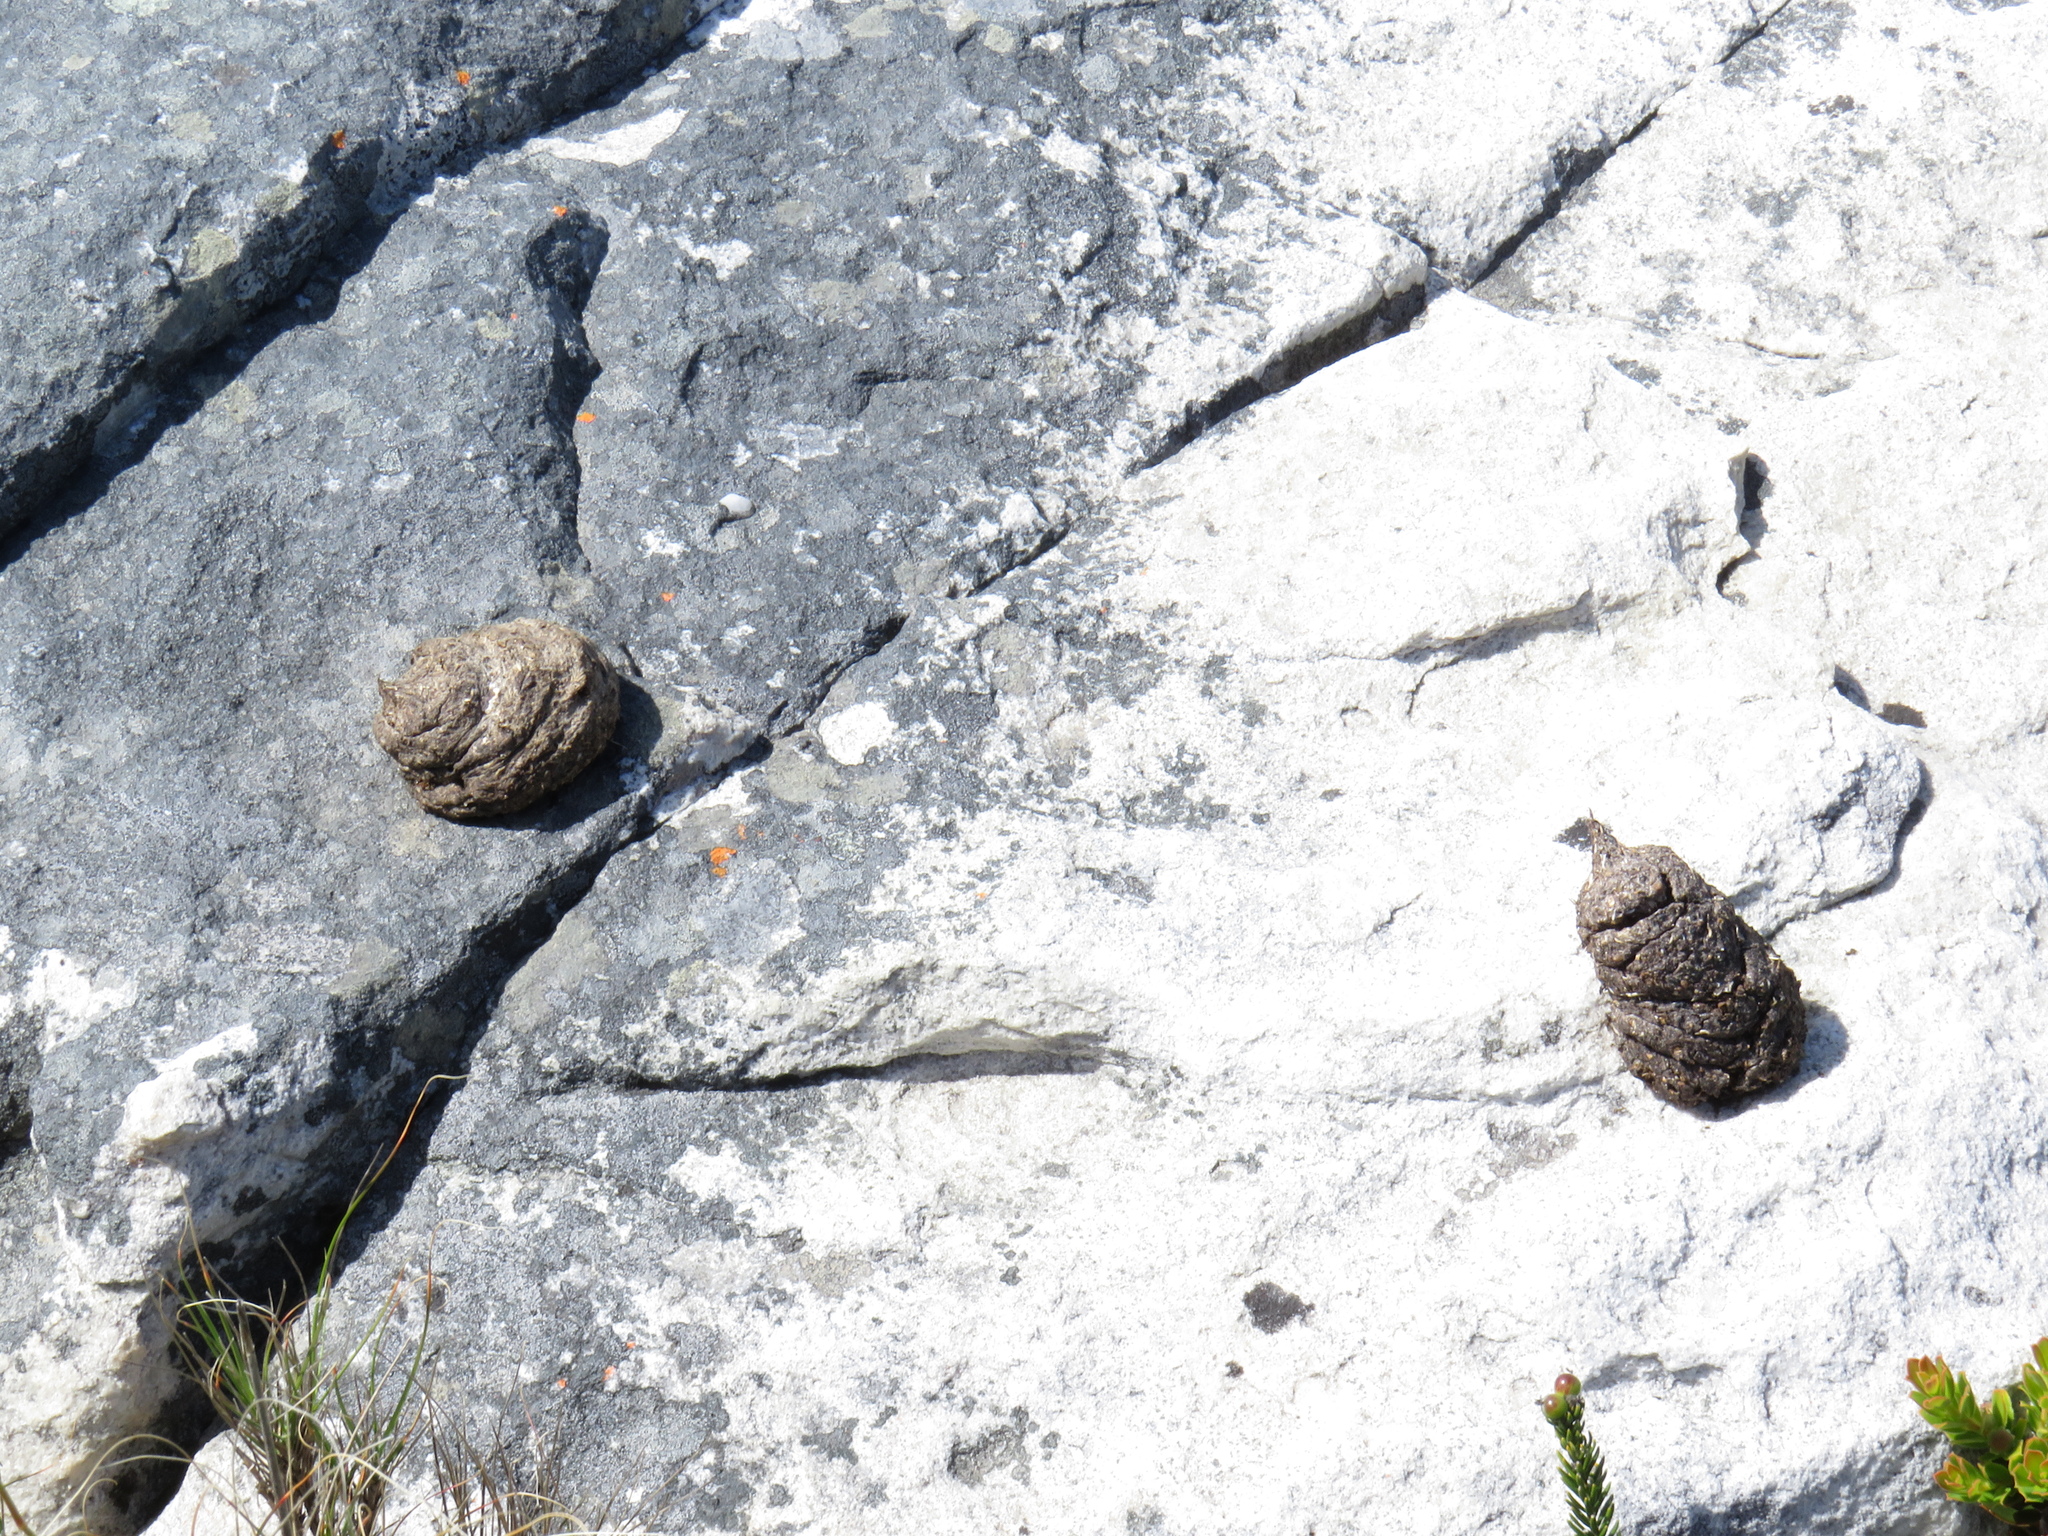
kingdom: Animalia
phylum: Chordata
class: Mammalia
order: Primates
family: Cercopithecidae
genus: Papio
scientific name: Papio ursinus
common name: Chacma baboon
